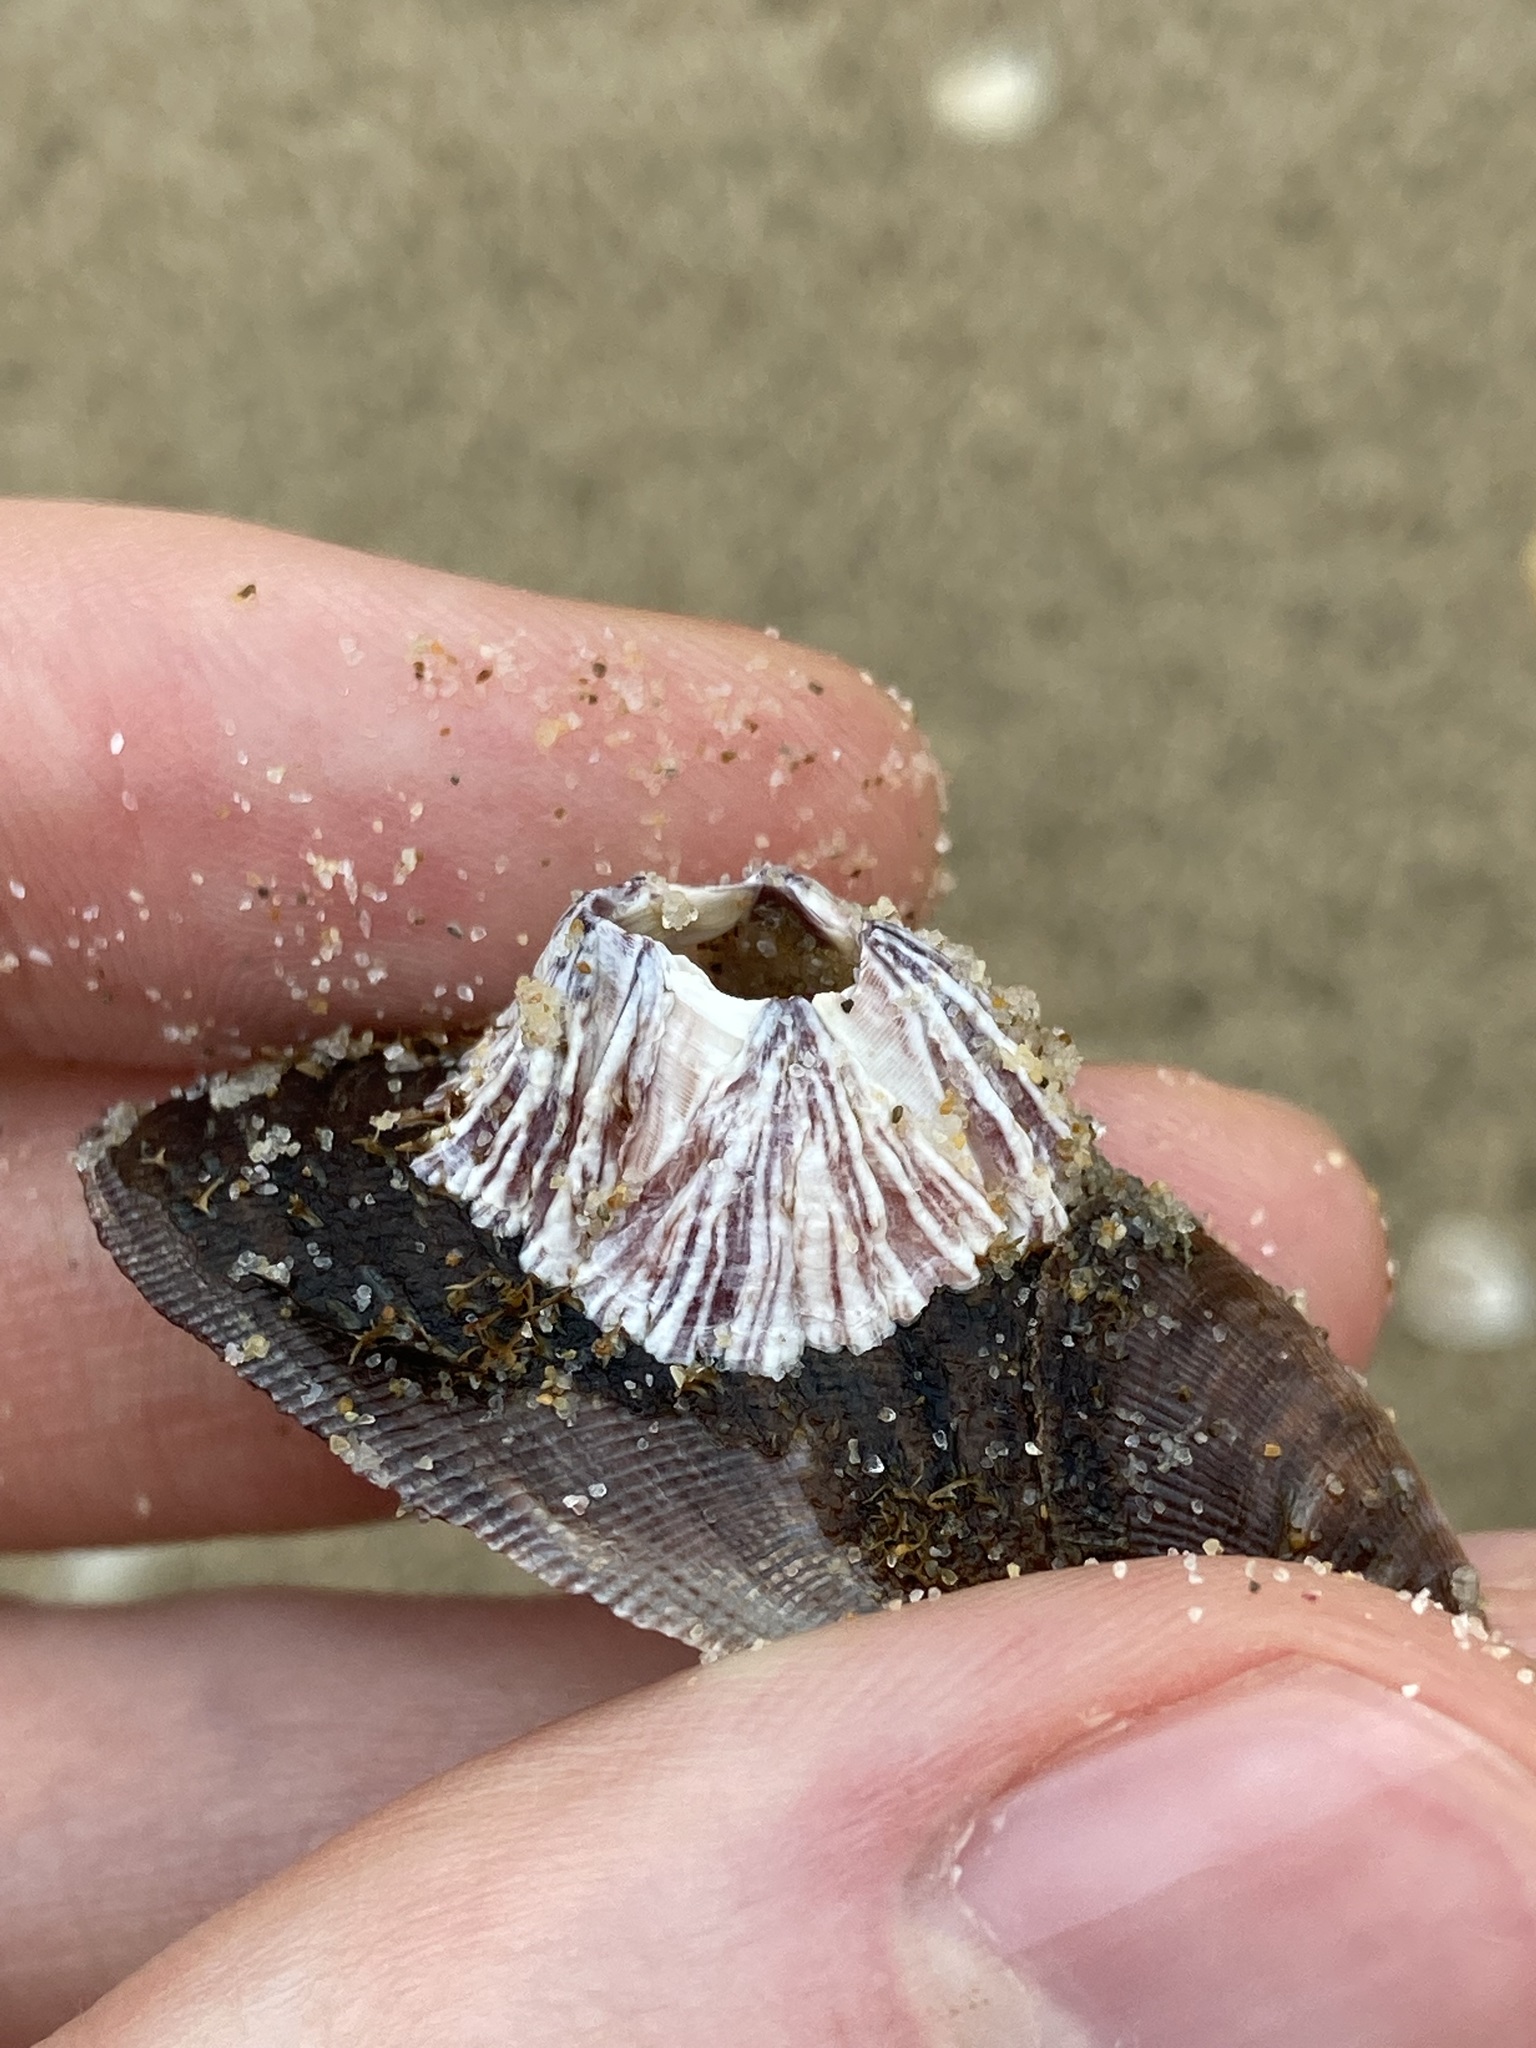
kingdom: Animalia
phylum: Arthropoda
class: Maxillopoda
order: Sessilia
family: Balanidae
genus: Balanus
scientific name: Balanus trigonus
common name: Triangle barnacle
